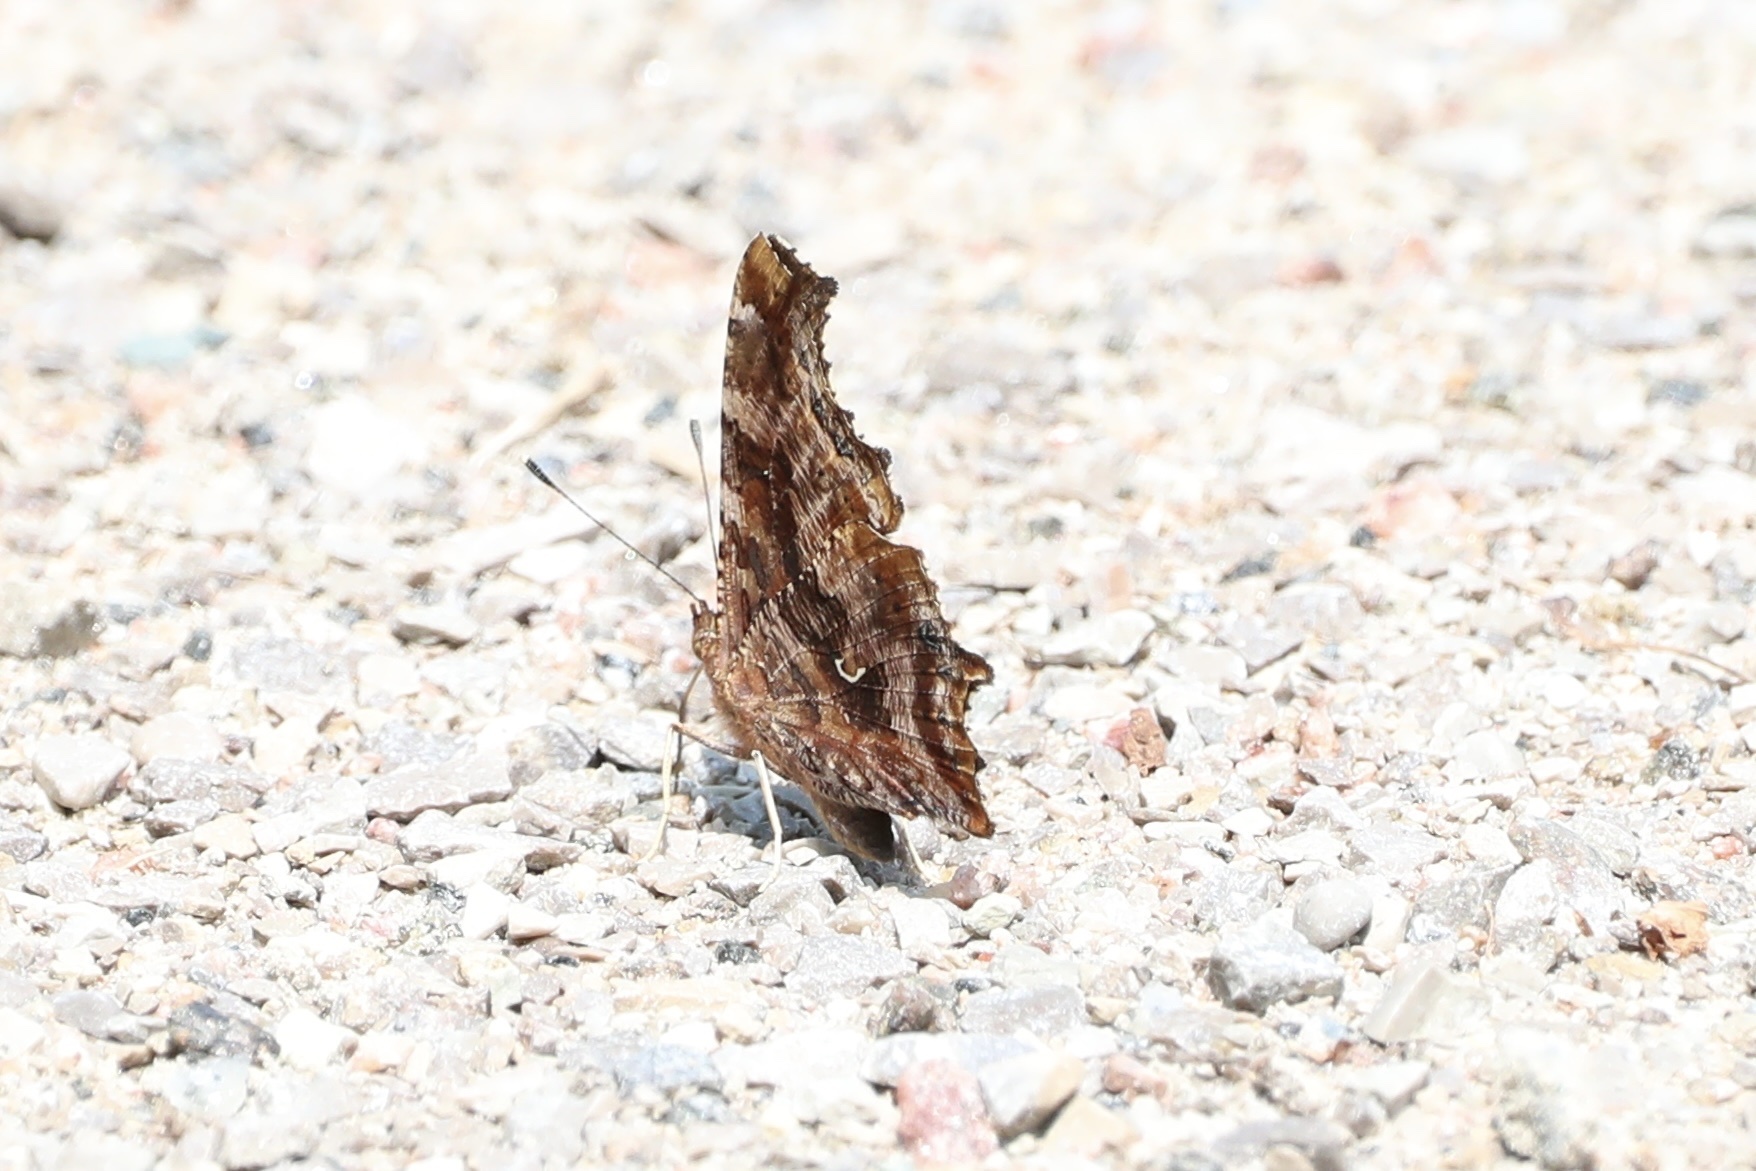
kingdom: Animalia
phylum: Arthropoda
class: Insecta
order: Lepidoptera
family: Nymphalidae
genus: Polygonia
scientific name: Polygonia comma
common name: Eastern comma
